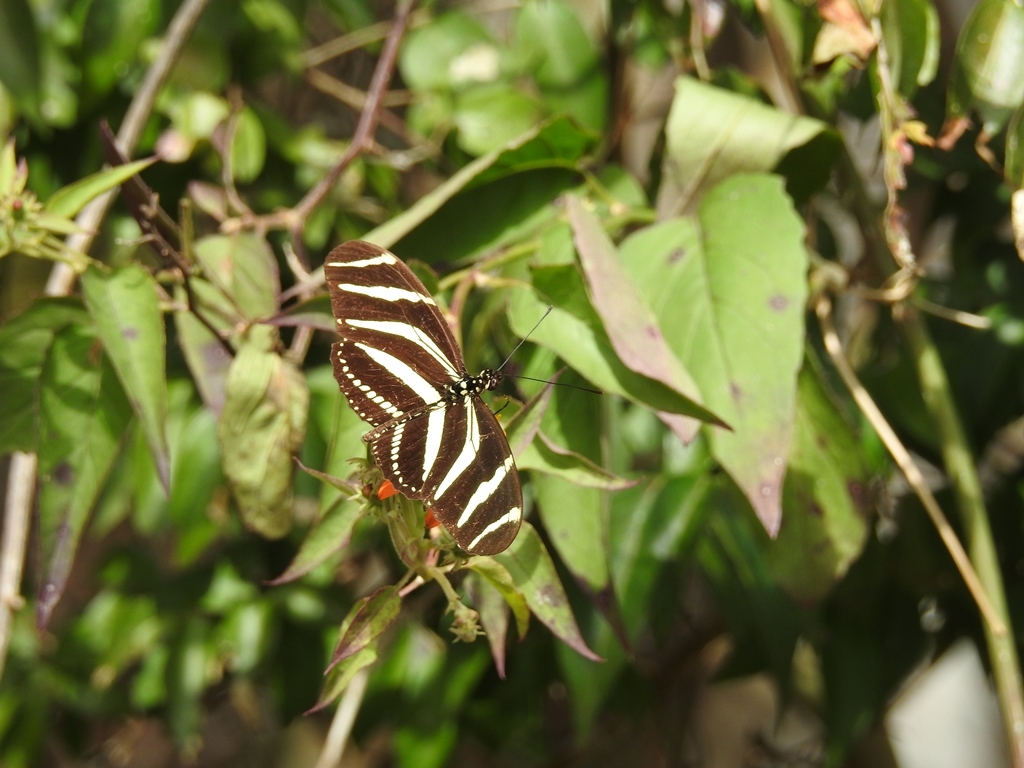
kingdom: Animalia
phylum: Arthropoda
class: Insecta
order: Lepidoptera
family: Nymphalidae
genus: Heliconius
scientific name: Heliconius charithonia
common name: Zebra long wing
